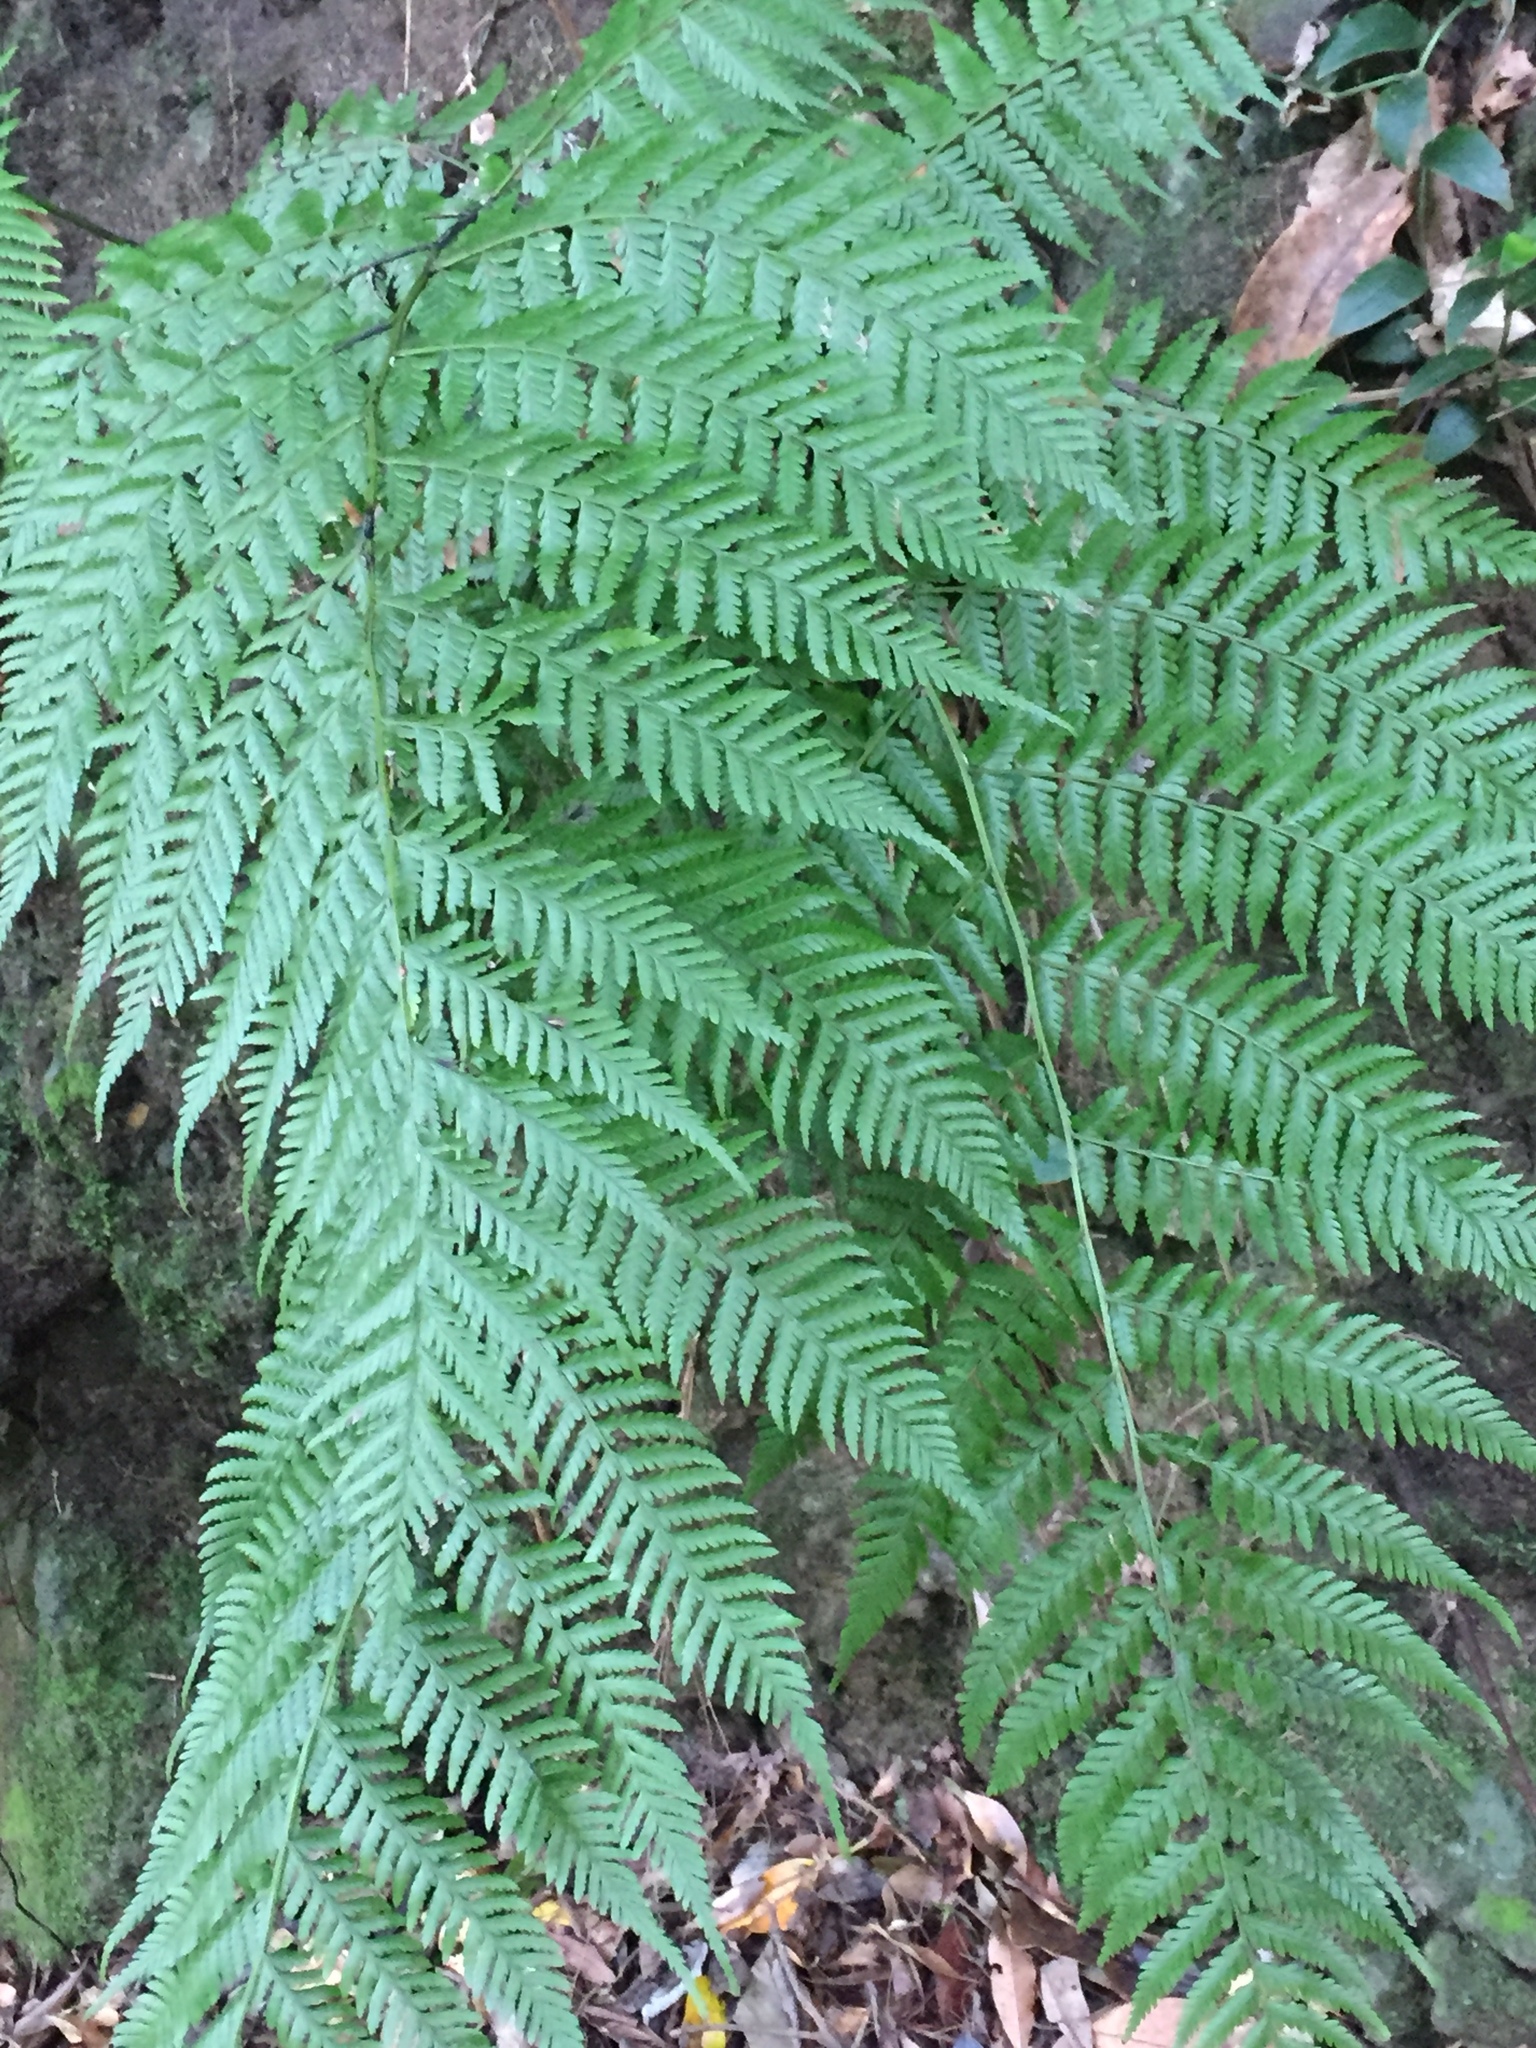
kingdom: Plantae
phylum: Tracheophyta
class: Polypodiopsida
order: Polypodiales
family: Athyriaceae
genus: Diplazium
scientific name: Diplazium caudatum
